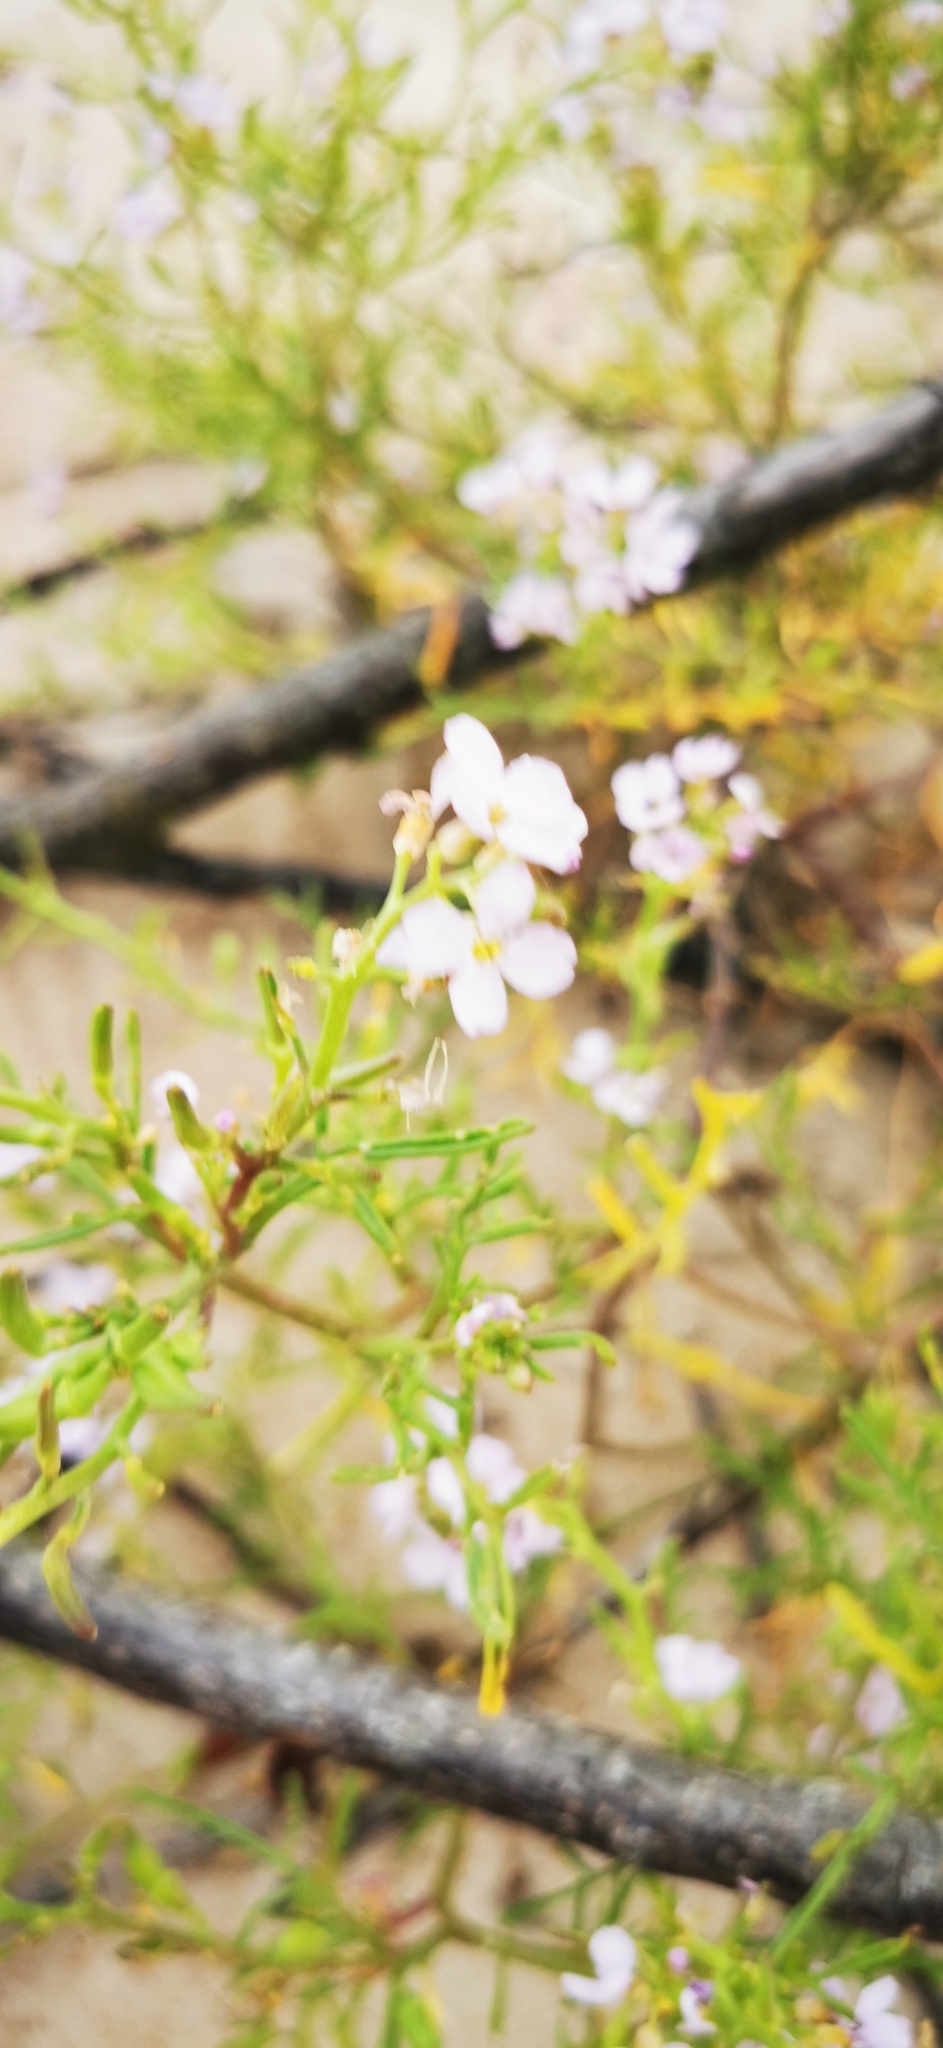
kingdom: Plantae
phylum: Tracheophyta
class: Magnoliopsida
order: Brassicales
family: Brassicaceae
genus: Cakile
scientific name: Cakile maritima
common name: Sea rocket
